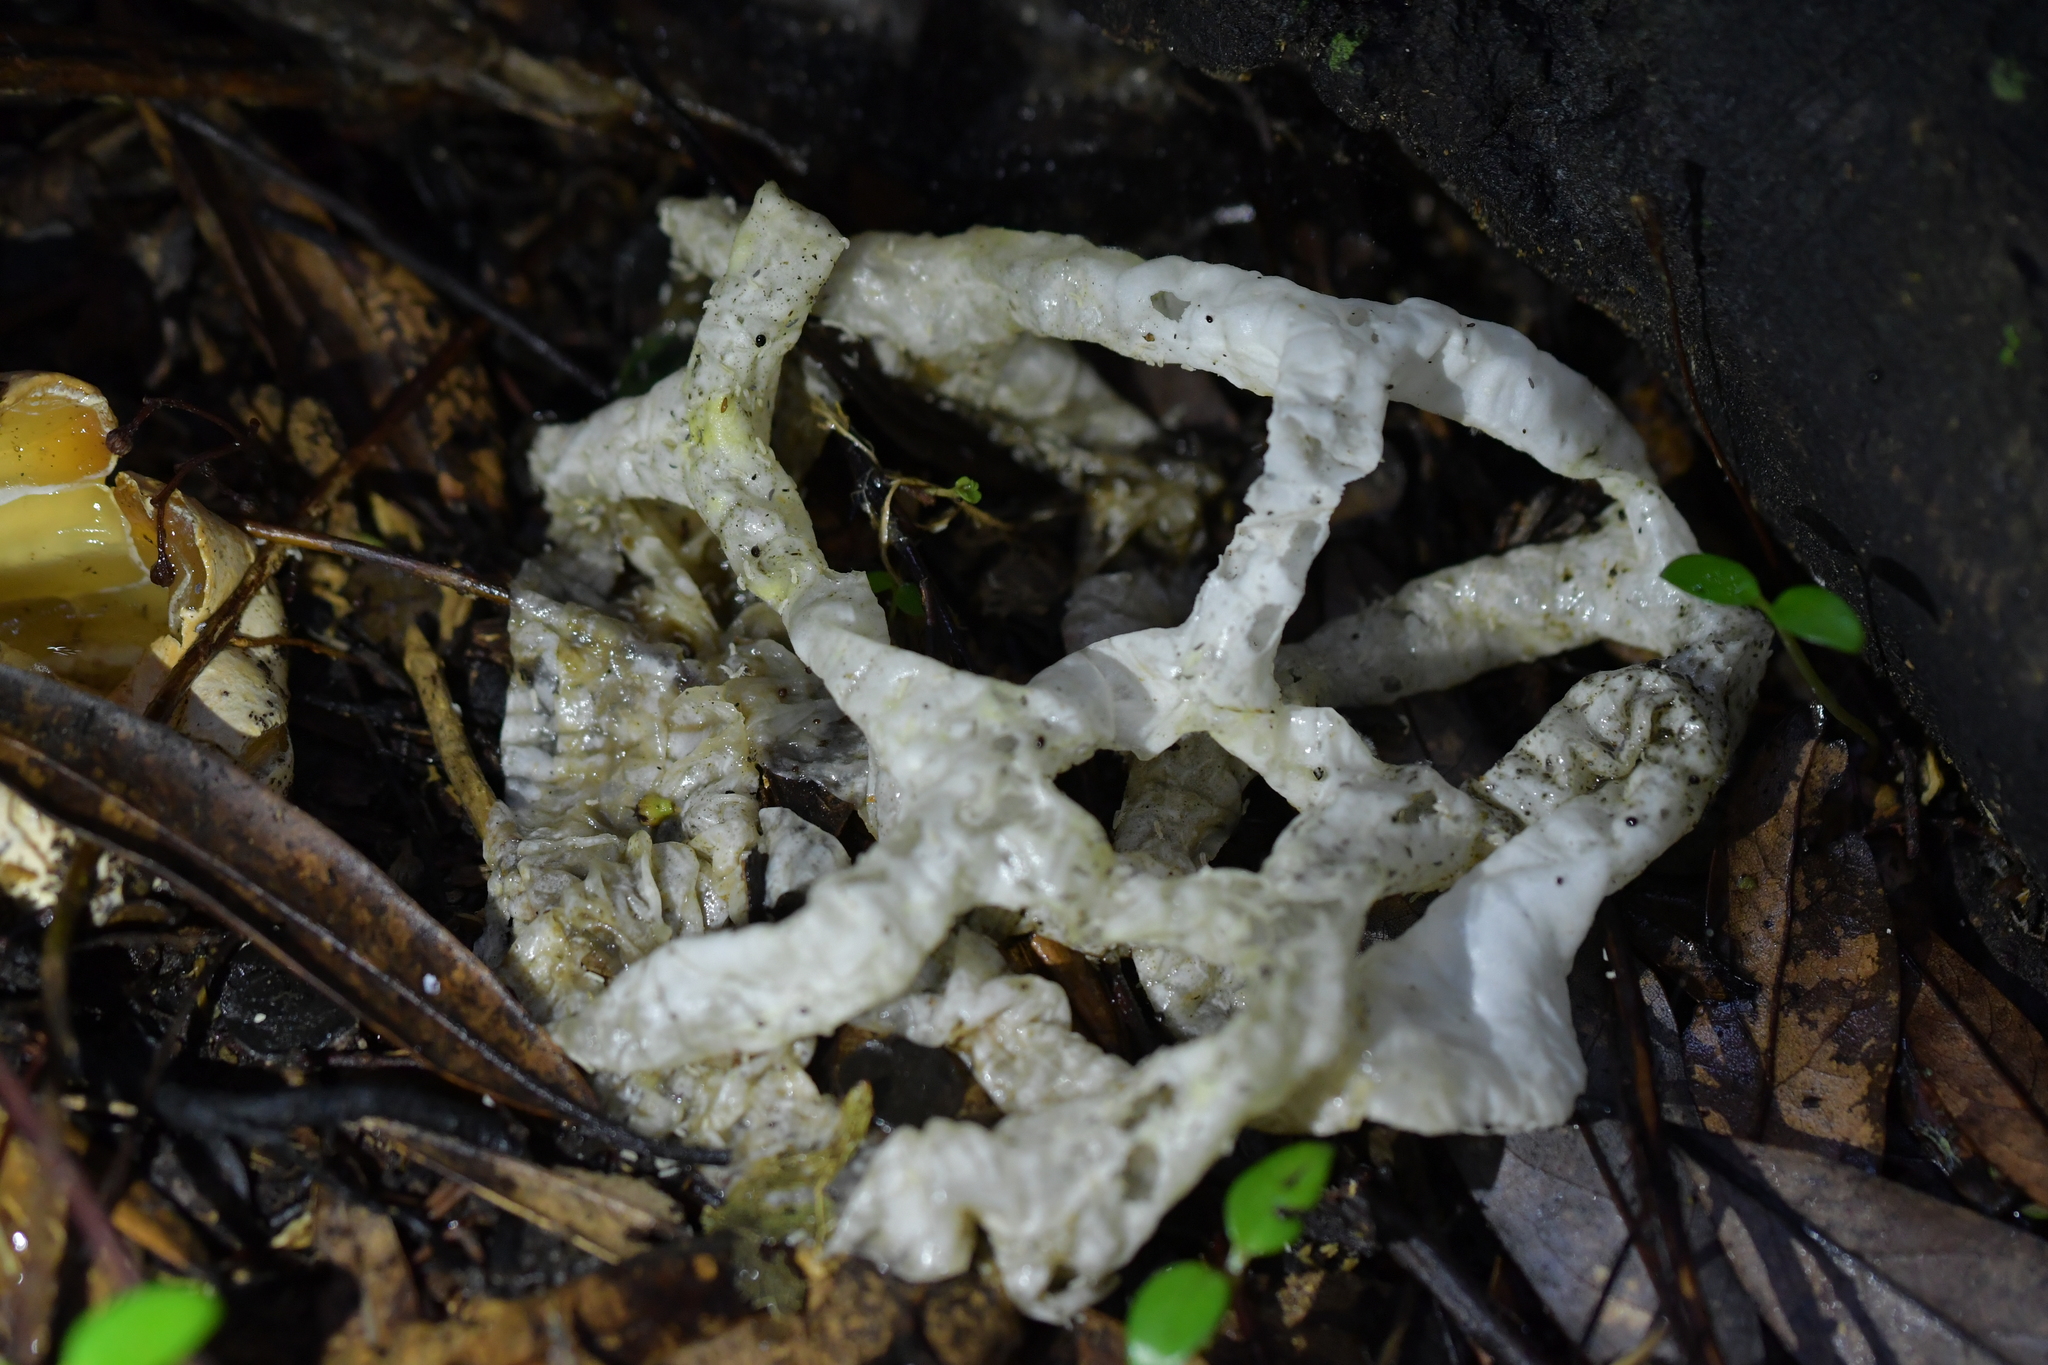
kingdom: Fungi
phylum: Basidiomycota
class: Agaricomycetes
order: Phallales
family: Phallaceae
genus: Ileodictyon
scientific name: Ileodictyon cibarium
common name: Basket fungus
